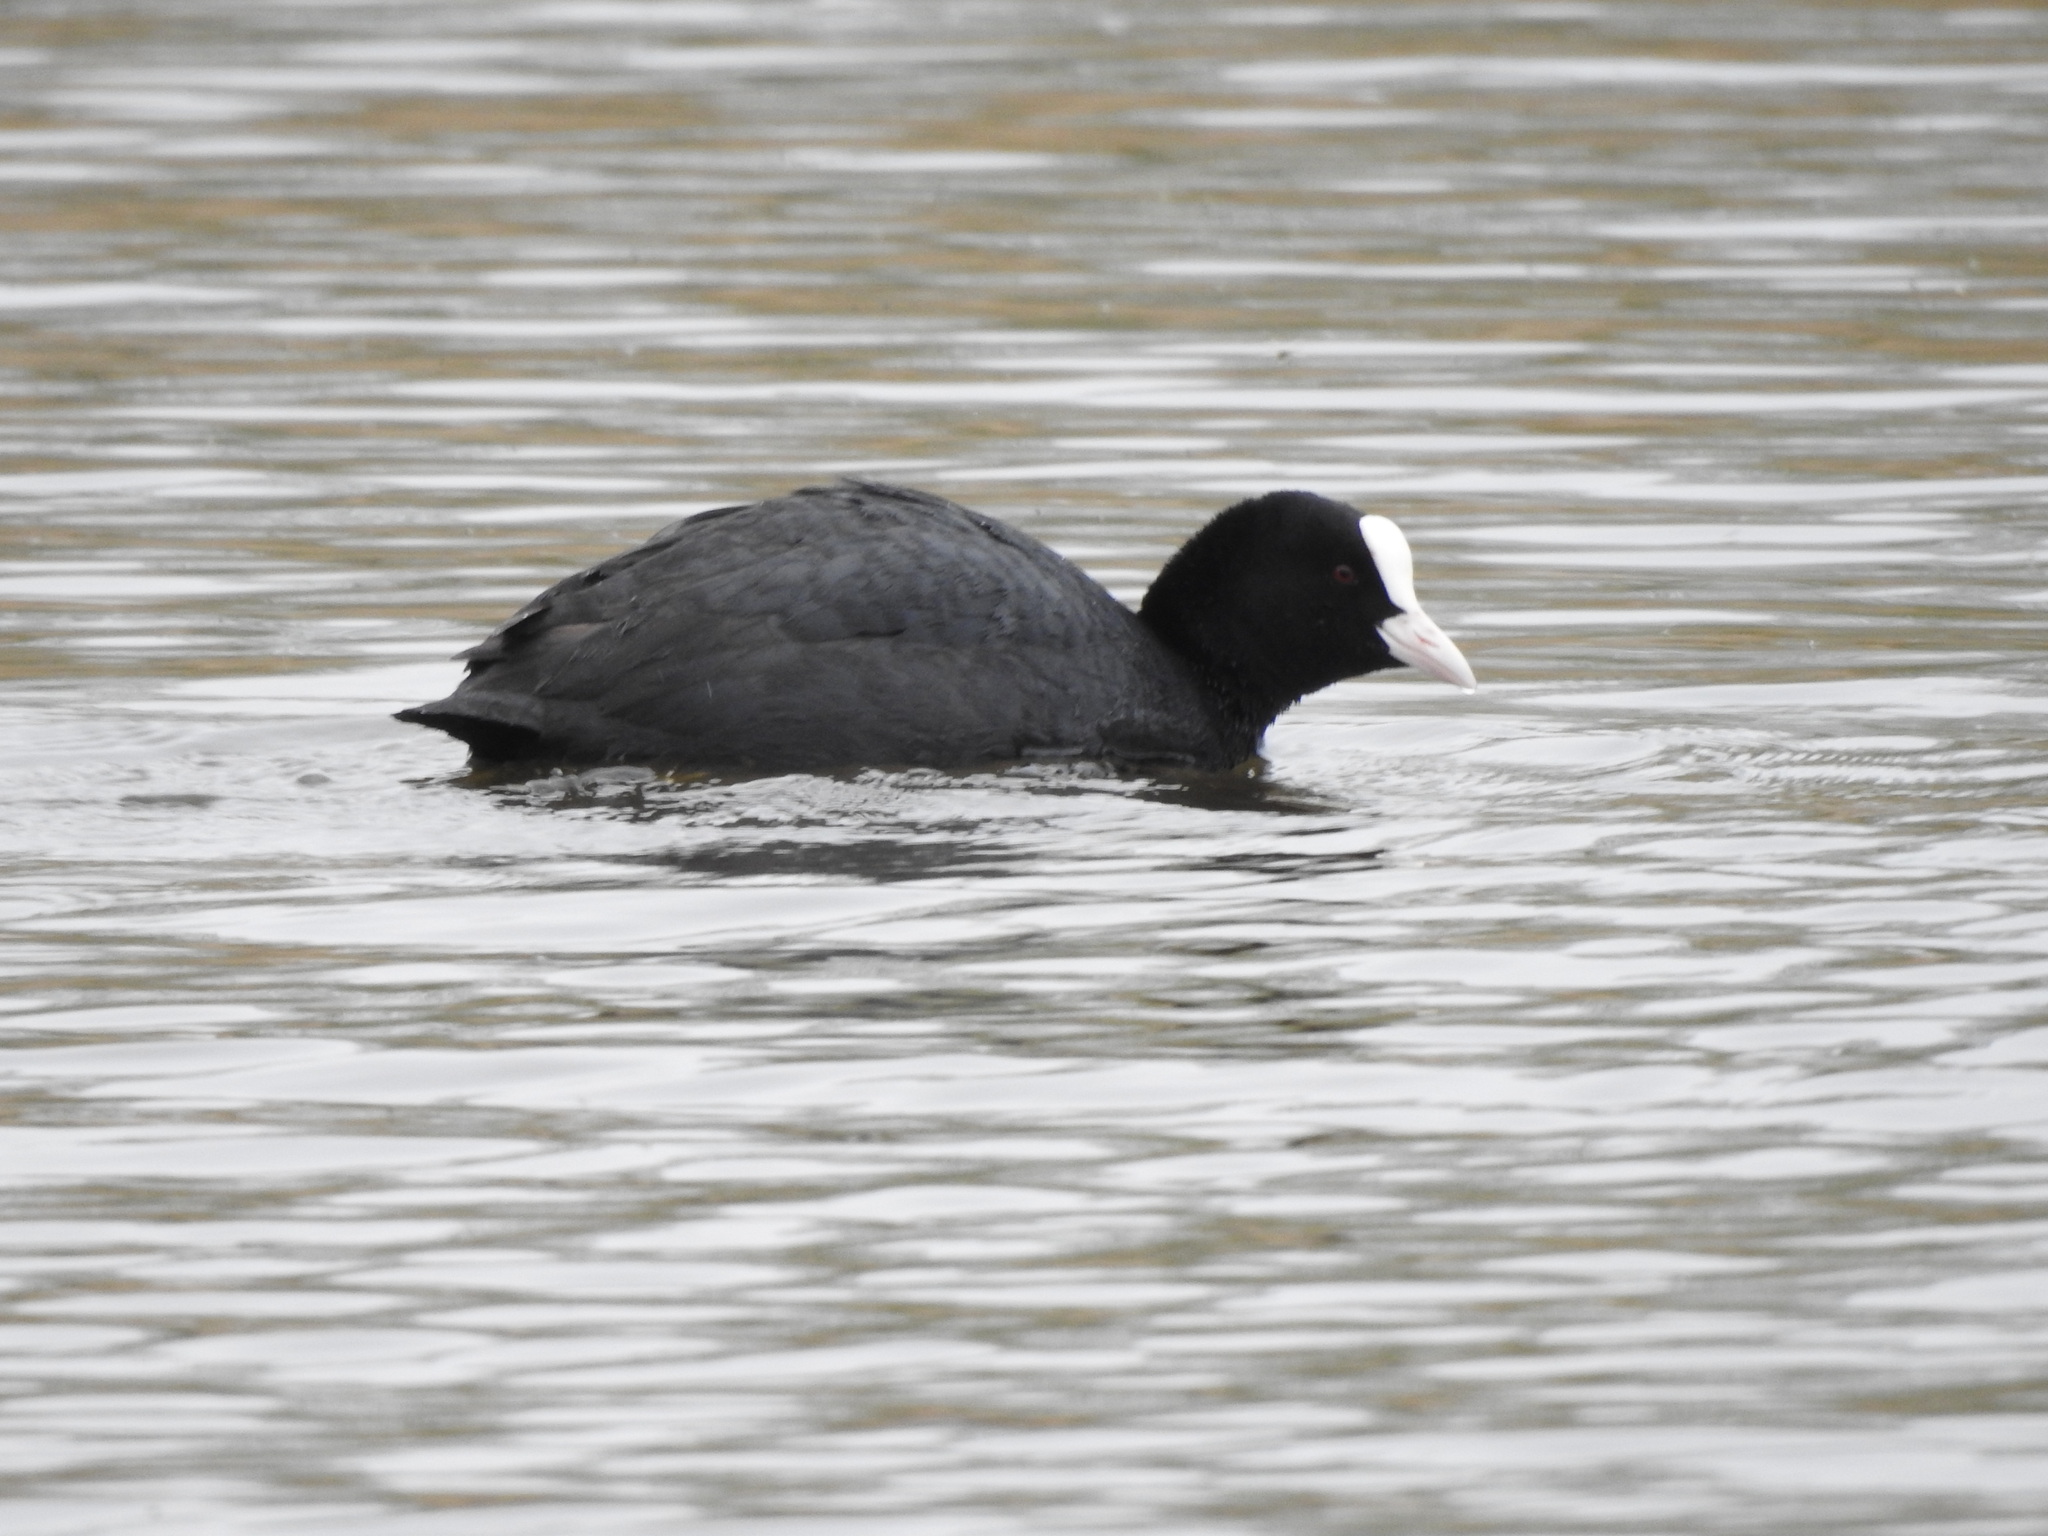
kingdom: Animalia
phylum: Chordata
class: Aves
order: Gruiformes
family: Rallidae
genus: Fulica
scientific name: Fulica atra
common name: Eurasian coot
